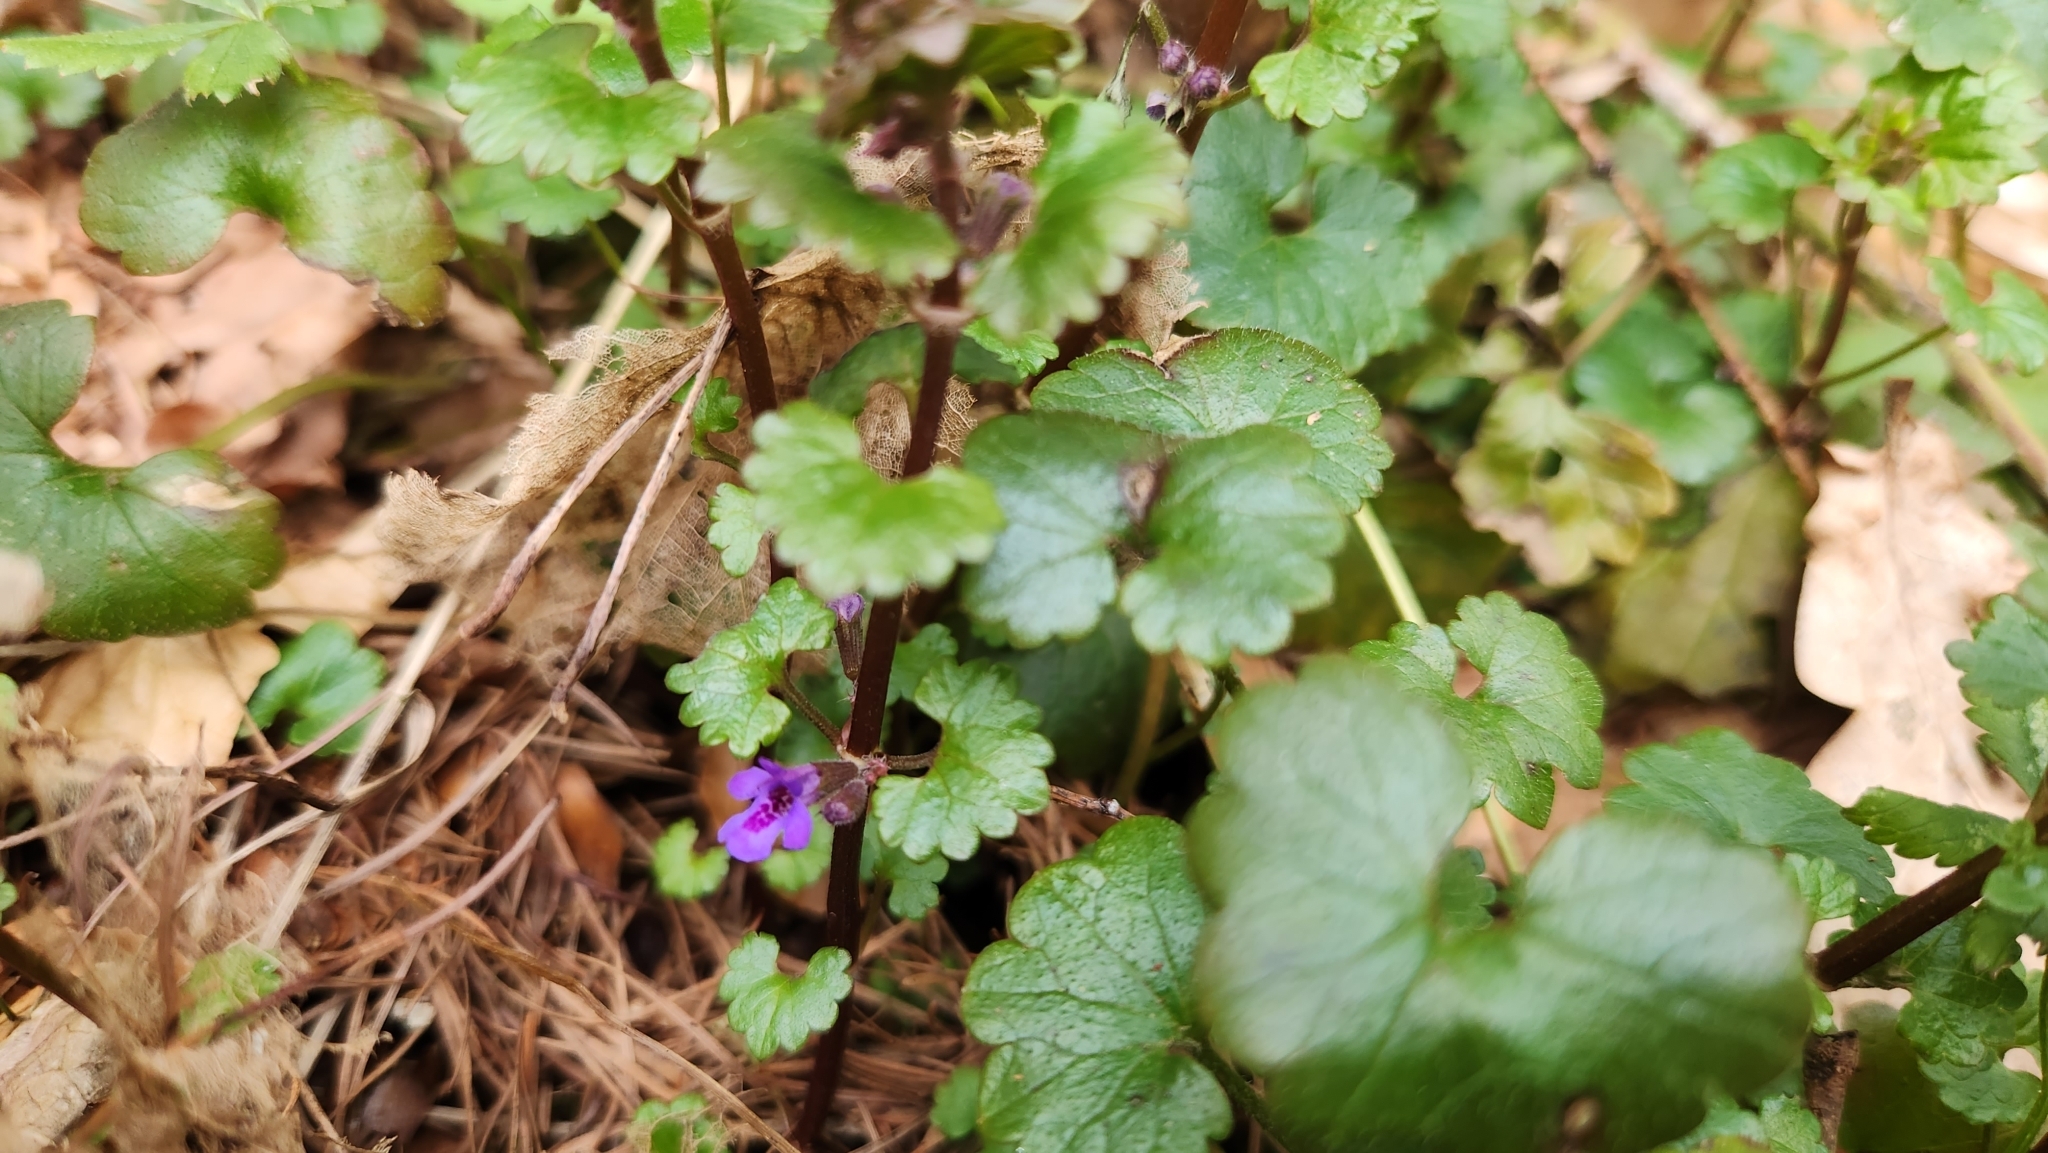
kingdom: Plantae
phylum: Tracheophyta
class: Magnoliopsida
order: Lamiales
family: Lamiaceae
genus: Glechoma
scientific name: Glechoma hederacea
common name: Ground ivy
